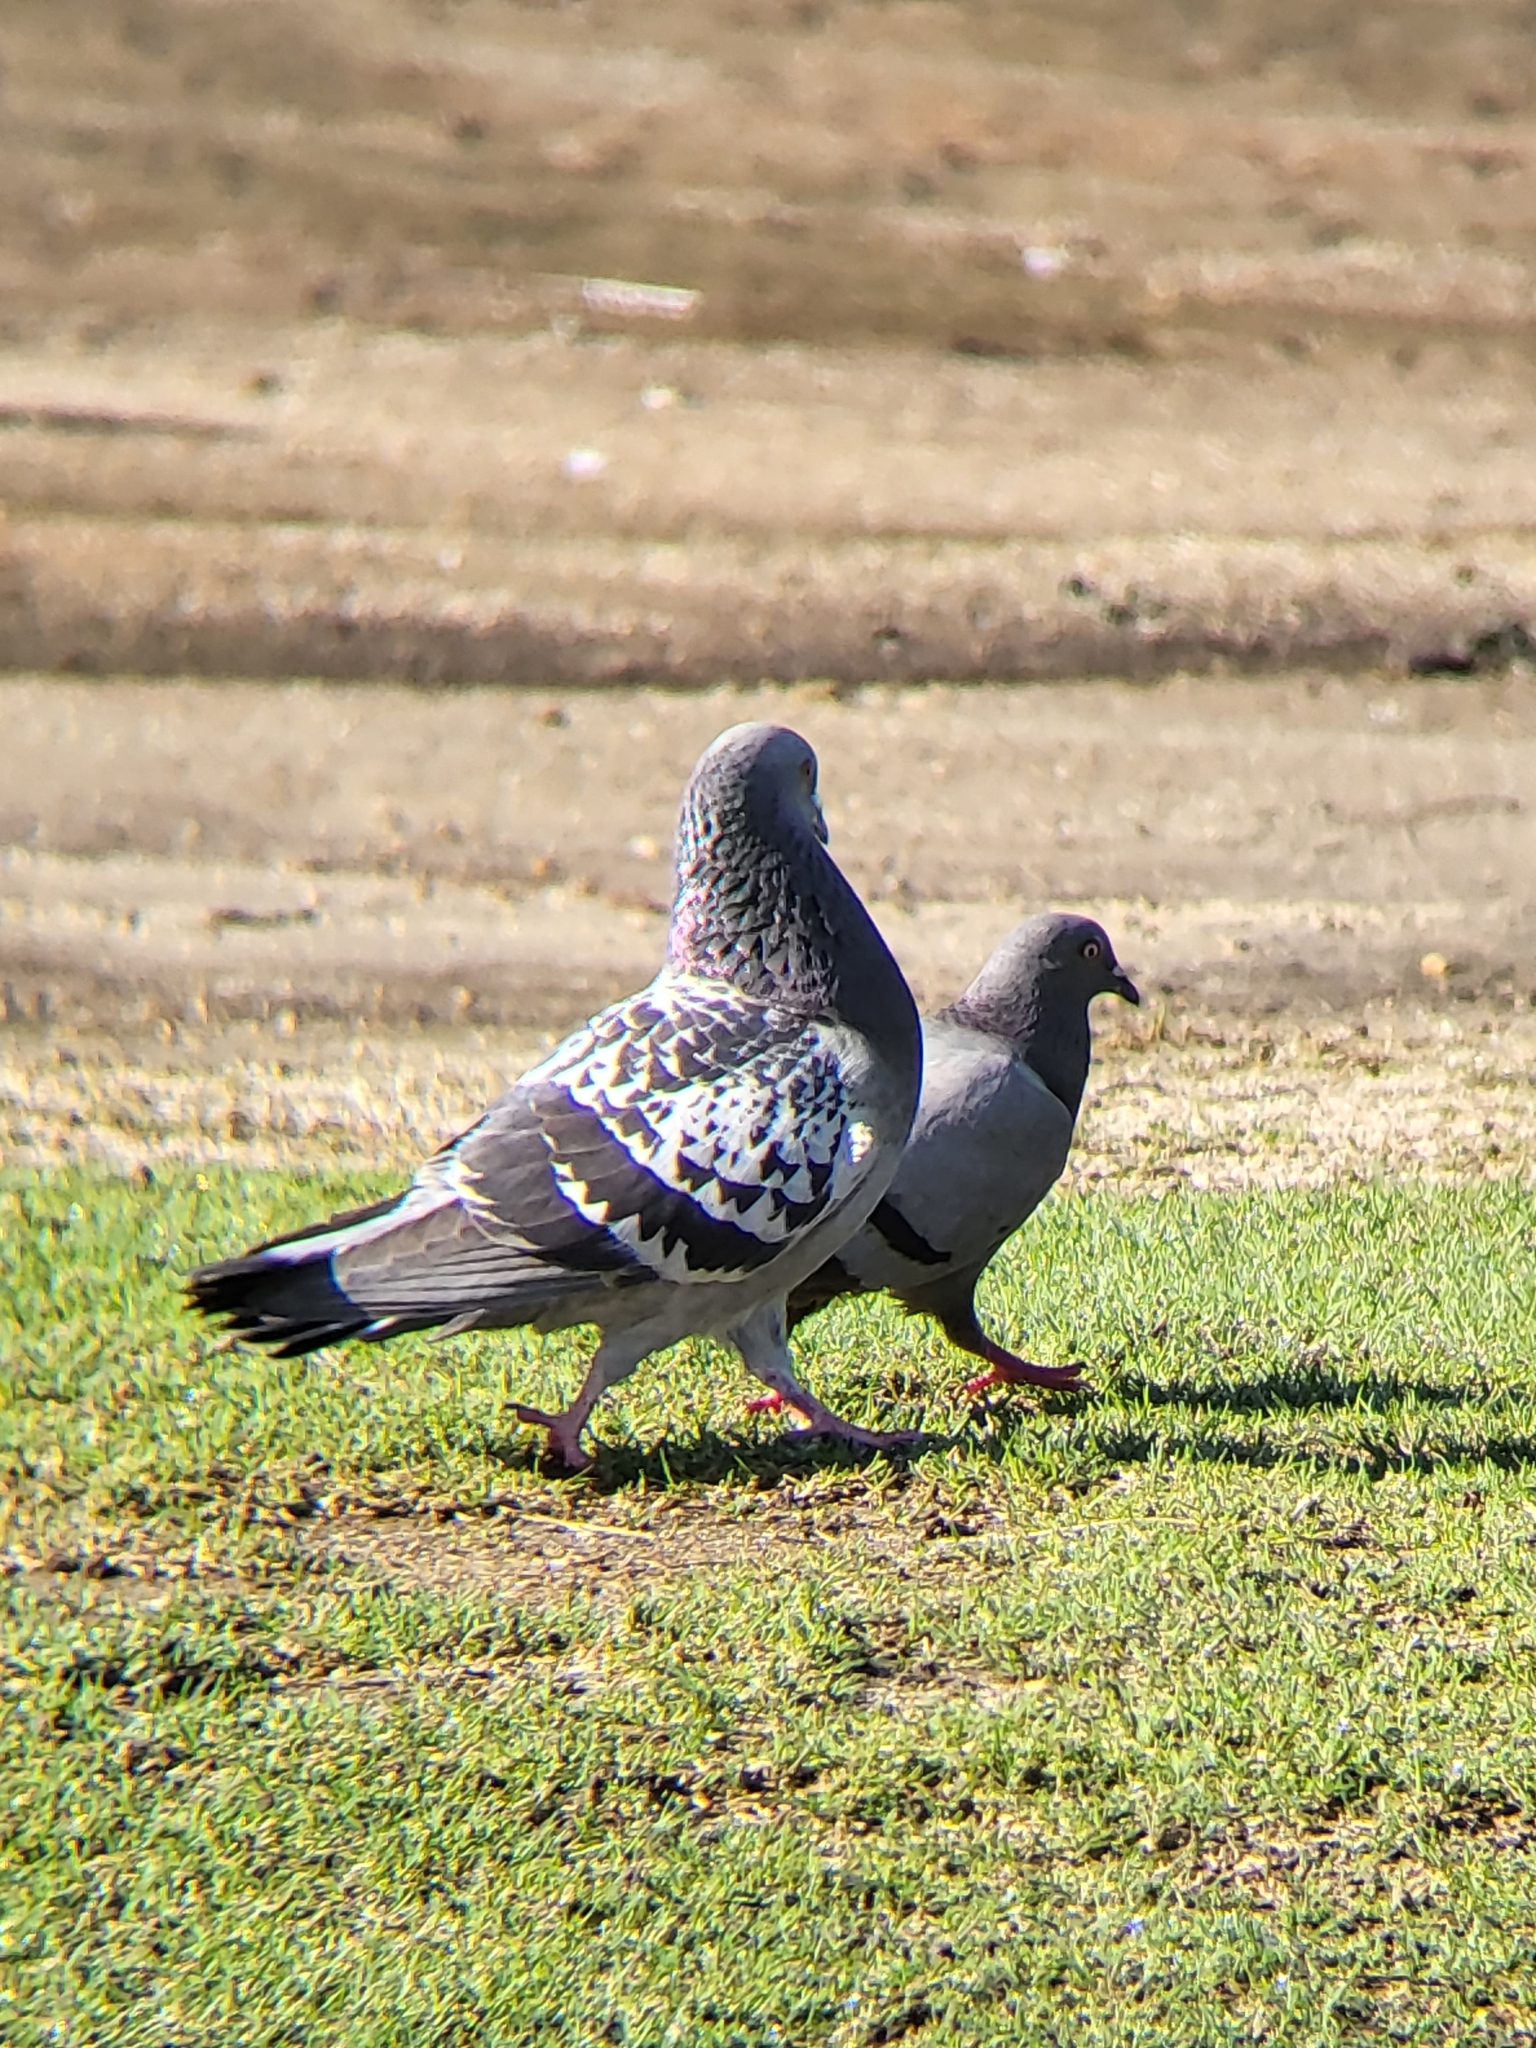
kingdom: Animalia
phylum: Chordata
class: Aves
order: Columbiformes
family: Columbidae
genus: Columba
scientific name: Columba livia
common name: Rock pigeon
